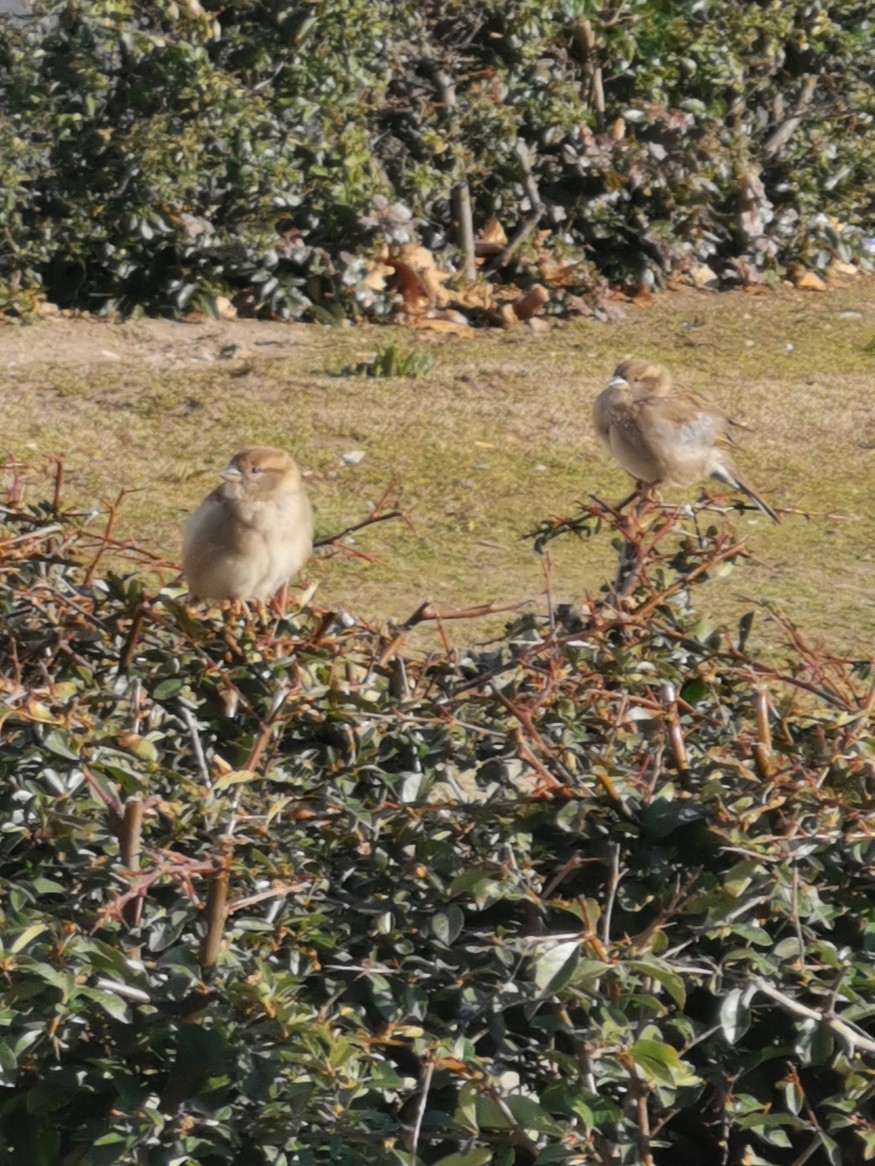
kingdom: Animalia
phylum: Chordata
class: Aves
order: Passeriformes
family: Passeridae
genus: Passer
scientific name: Passer domesticus
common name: House sparrow
